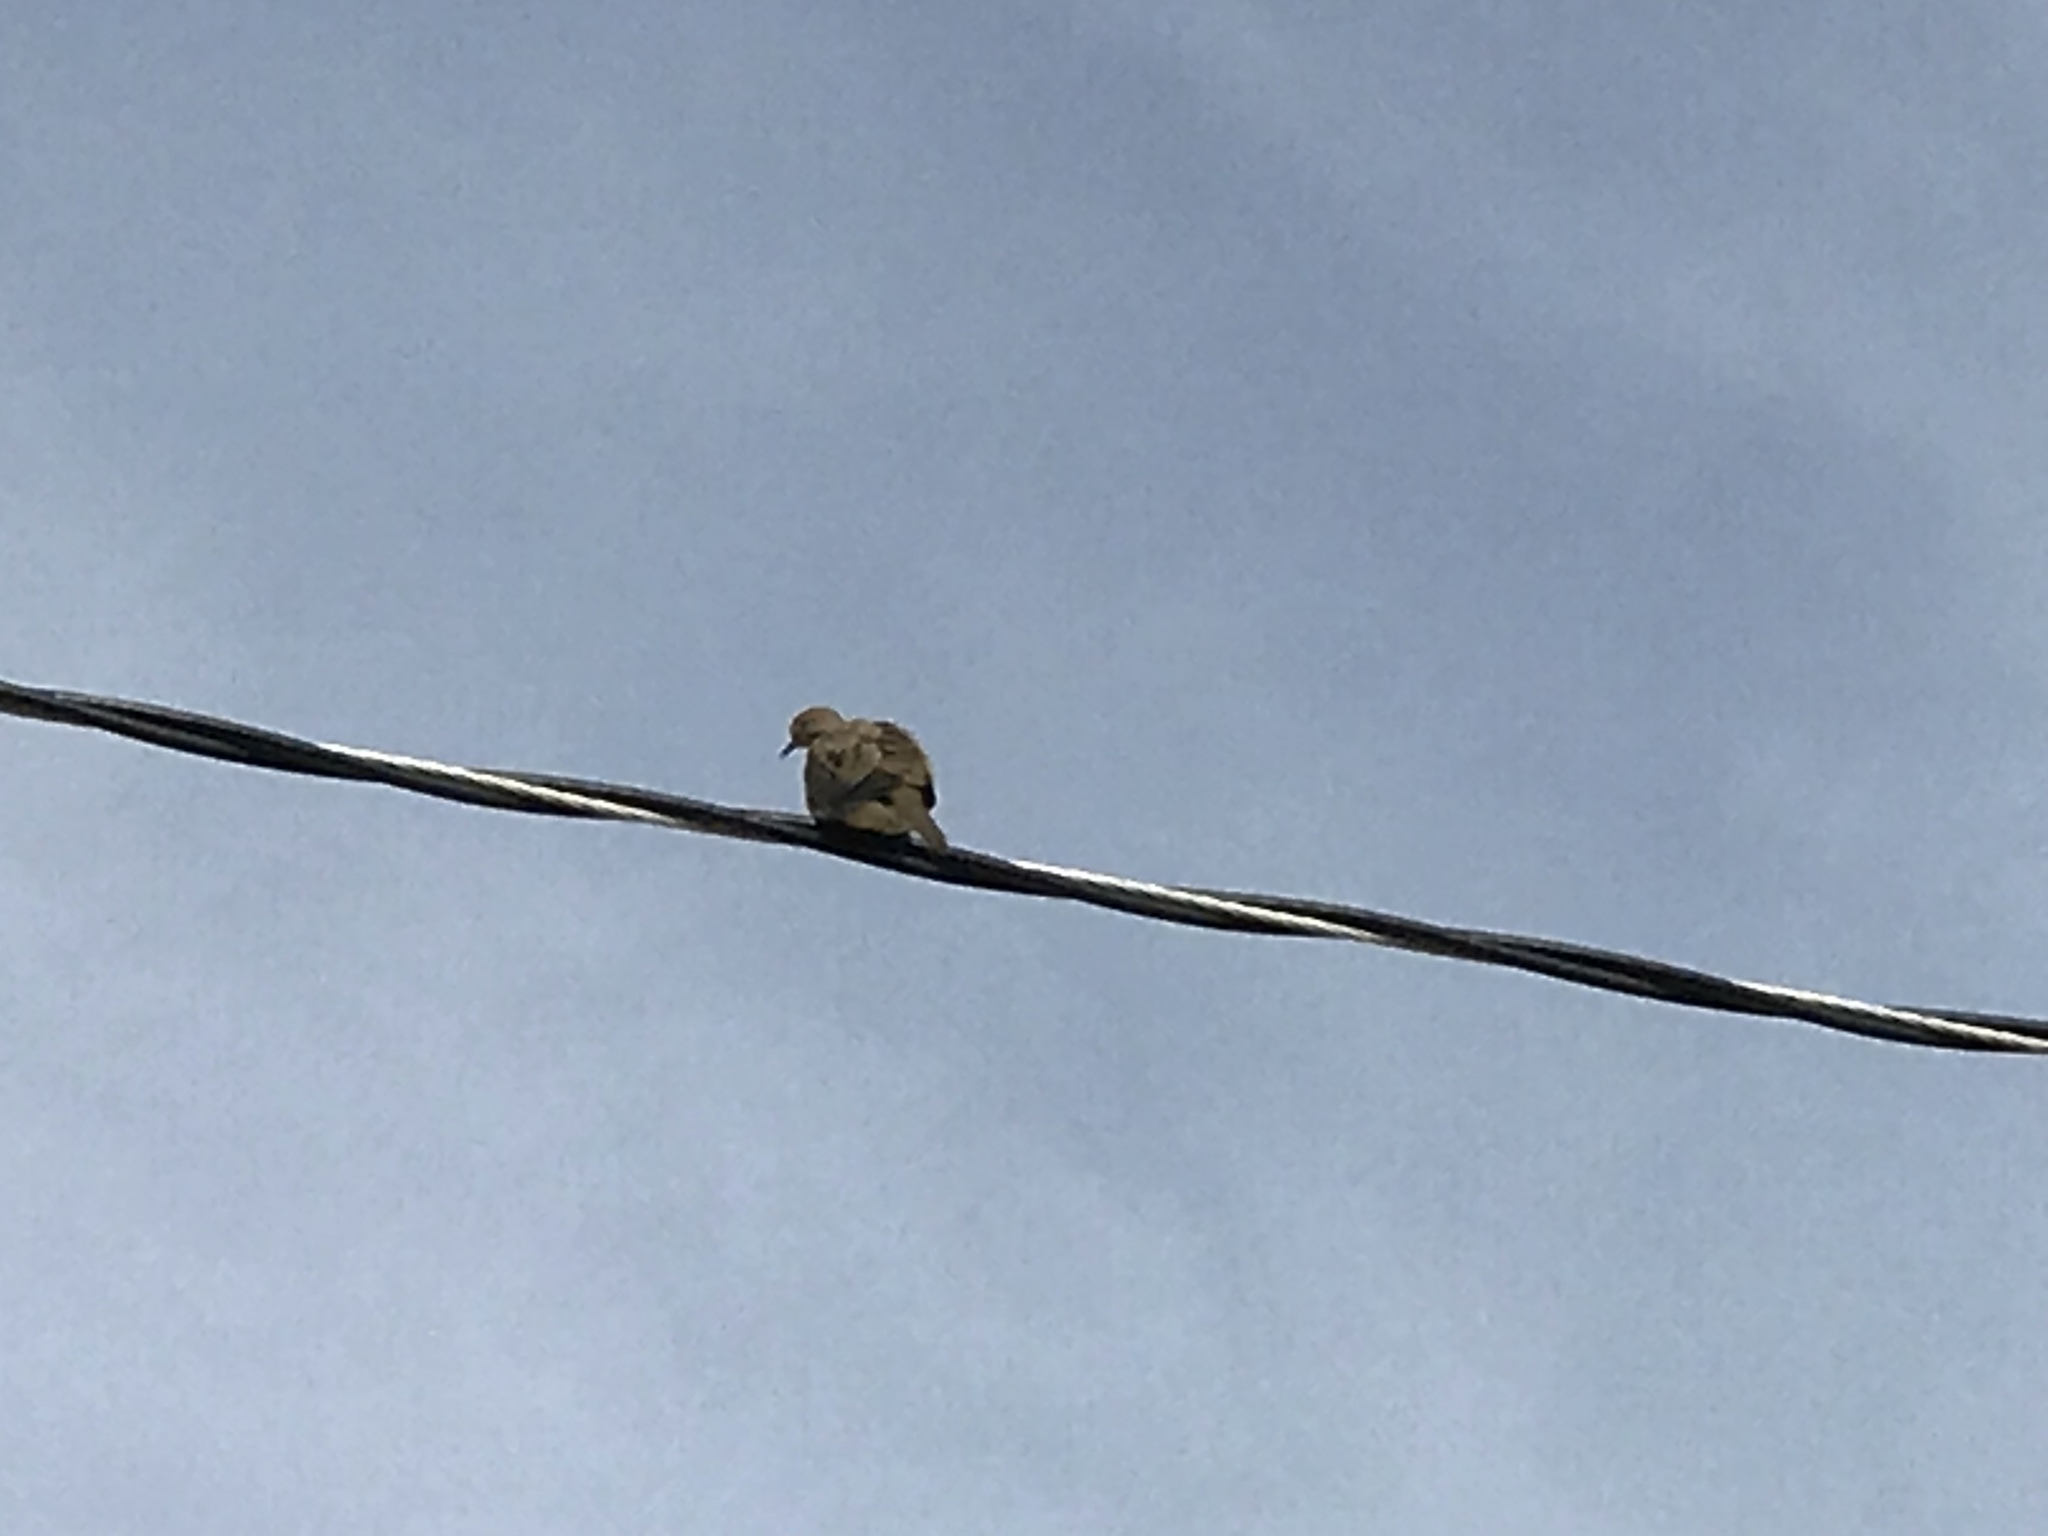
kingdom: Animalia
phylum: Chordata
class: Aves
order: Columbiformes
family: Columbidae
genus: Zenaida
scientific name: Zenaida macroura
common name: Mourning dove
